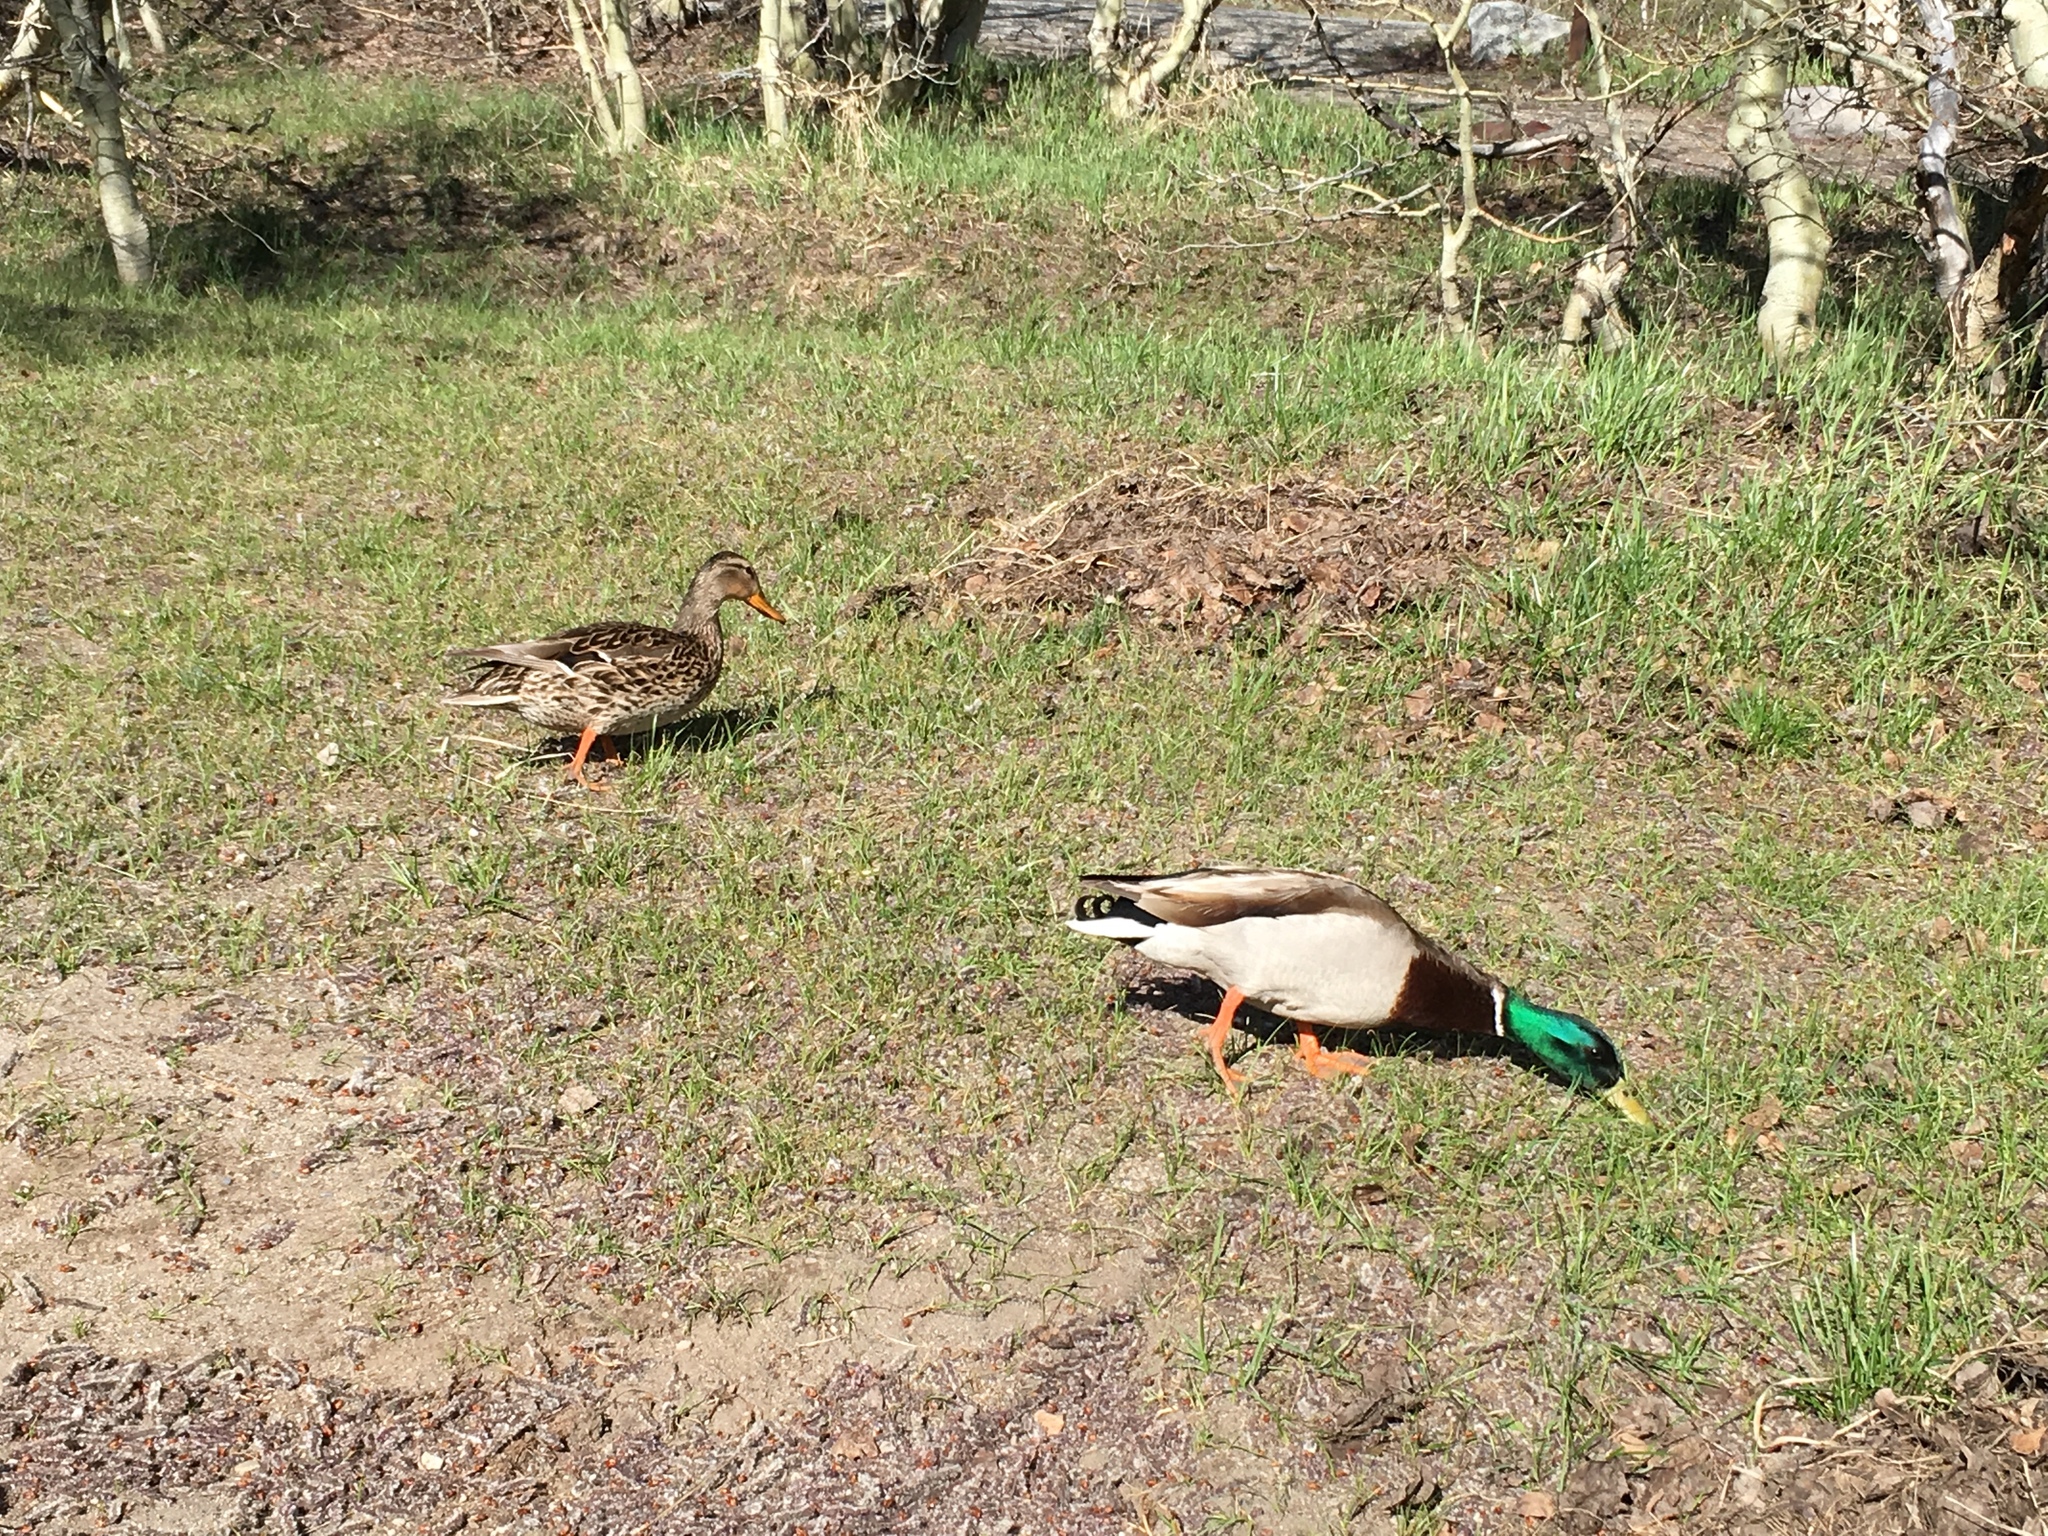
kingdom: Animalia
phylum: Chordata
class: Aves
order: Anseriformes
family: Anatidae
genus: Anas
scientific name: Anas platyrhynchos
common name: Mallard
